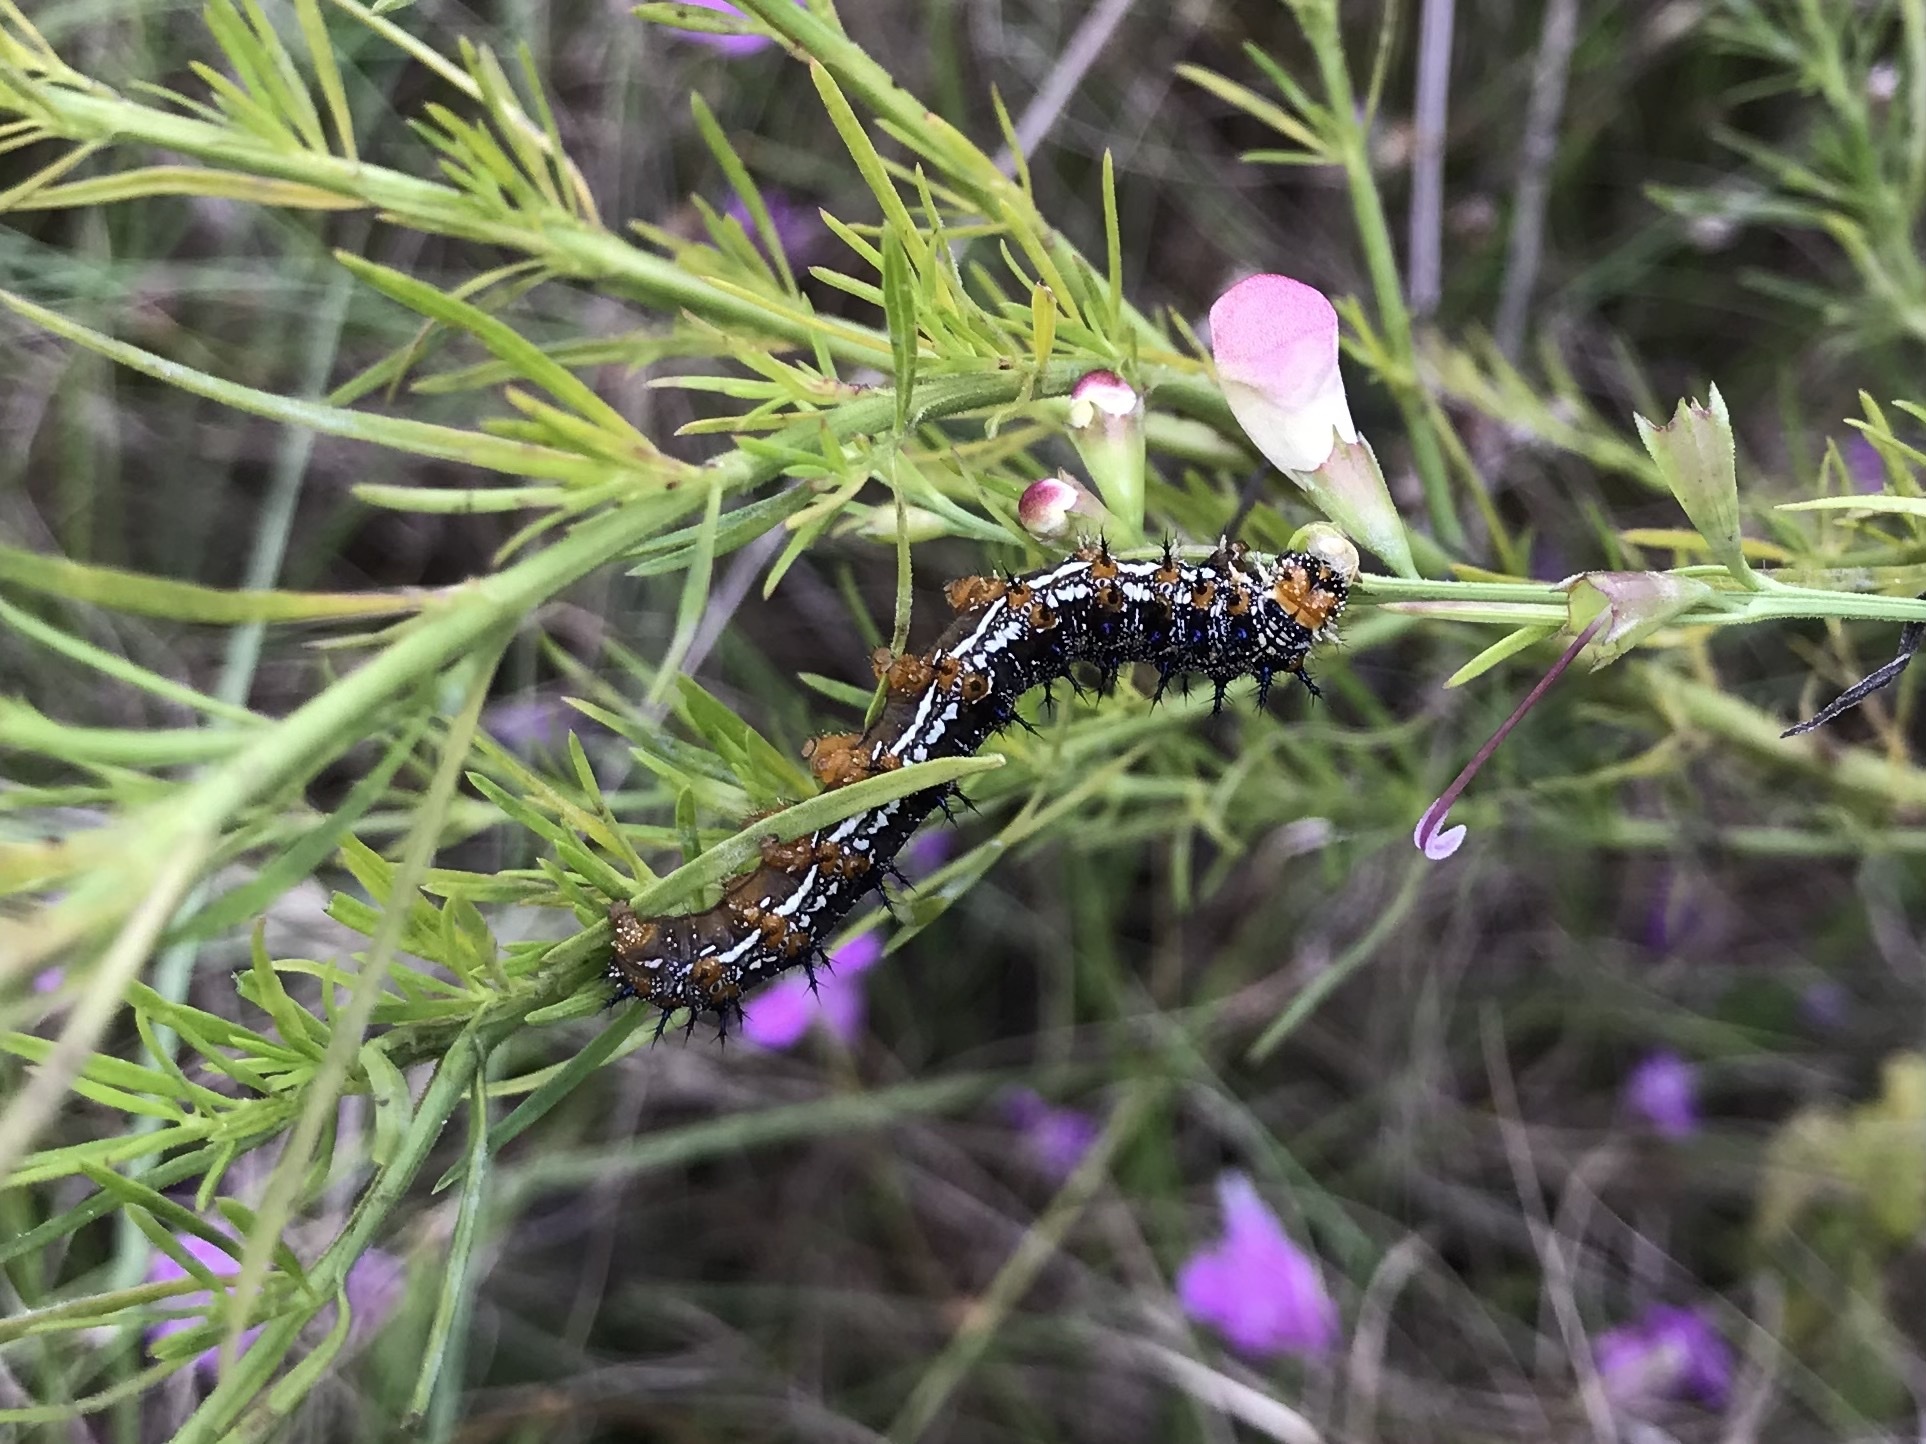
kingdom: Animalia
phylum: Arthropoda
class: Insecta
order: Lepidoptera
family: Nymphalidae
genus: Junonia
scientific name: Junonia coenia
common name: Common buckeye
